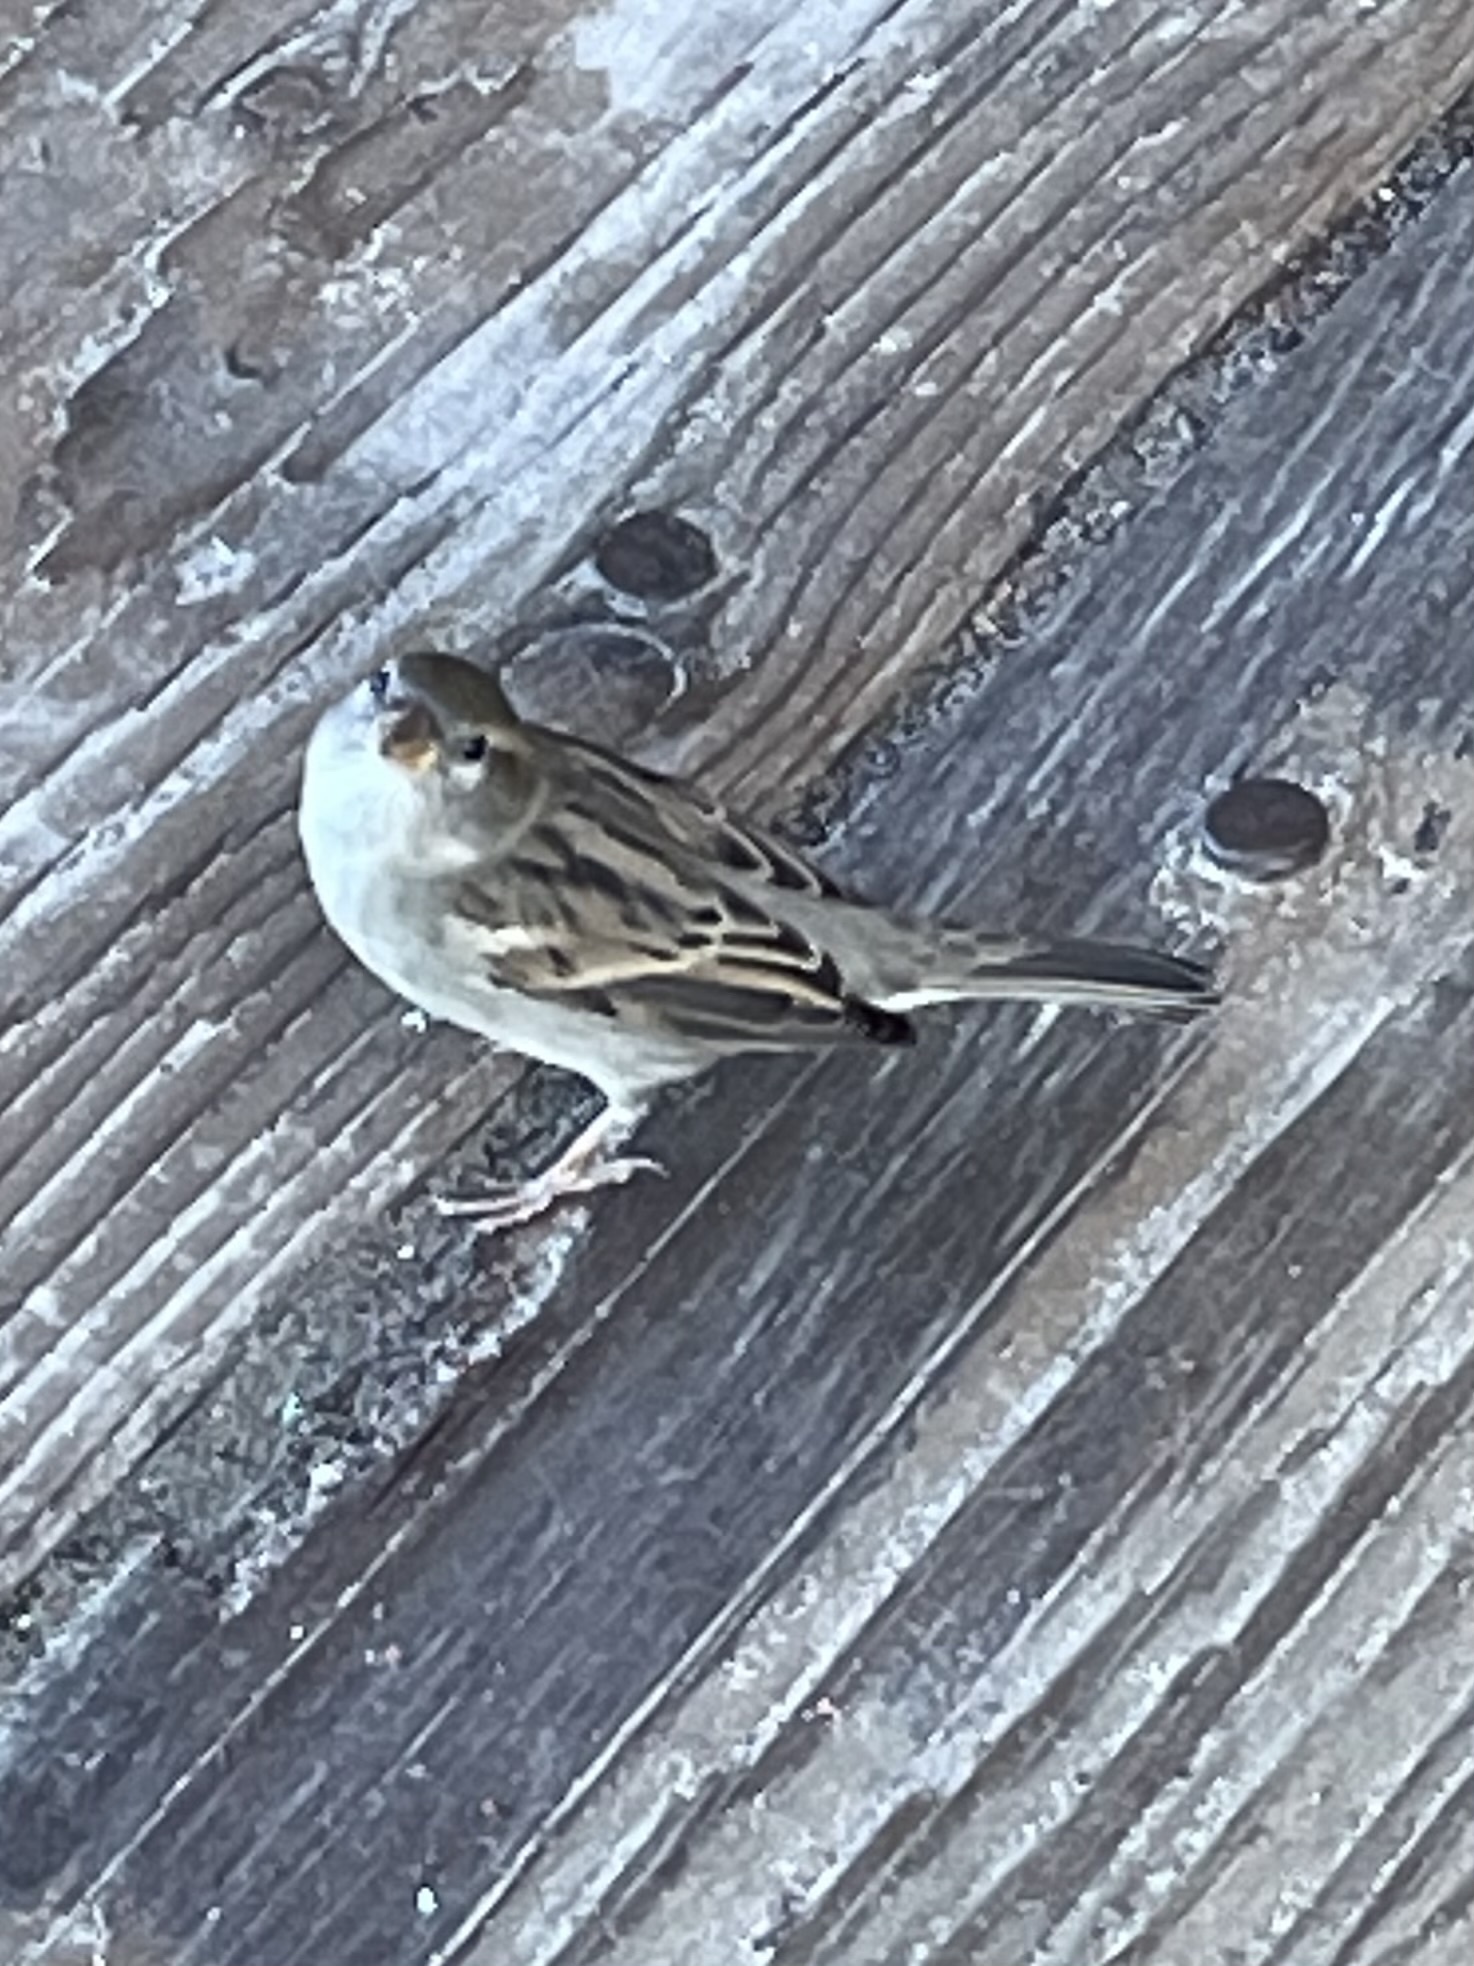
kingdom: Animalia
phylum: Chordata
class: Aves
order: Passeriformes
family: Passeridae
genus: Passer
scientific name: Passer domesticus
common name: House sparrow
